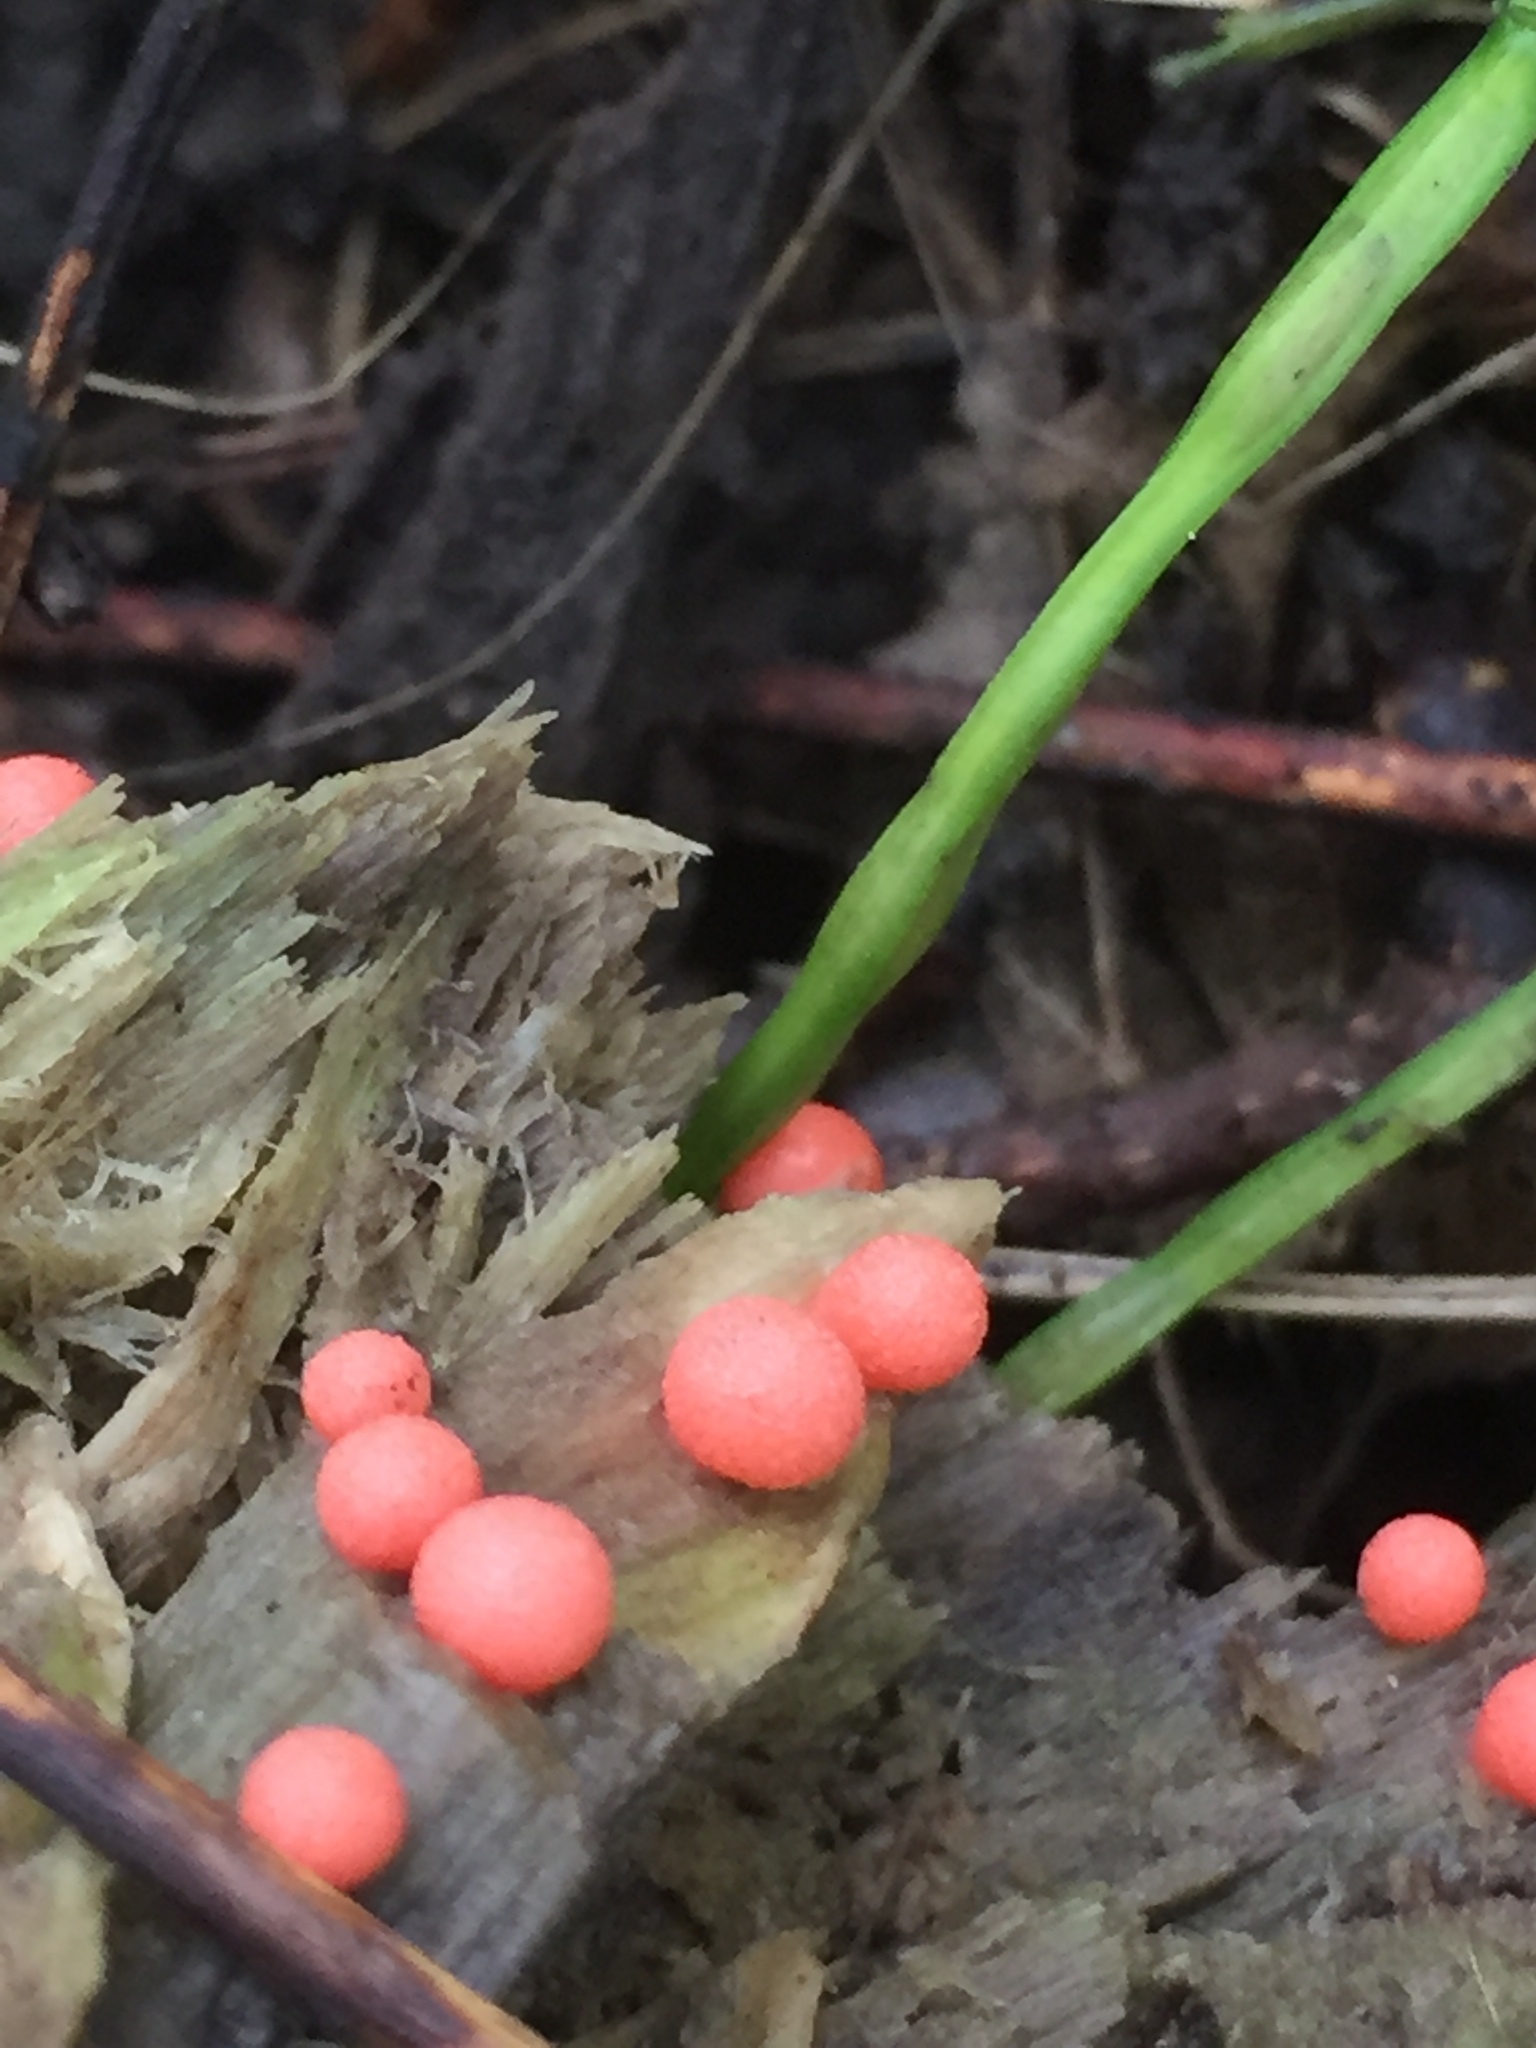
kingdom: Protozoa
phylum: Mycetozoa
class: Myxomycetes
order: Cribrariales
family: Tubiferaceae
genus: Lycogala
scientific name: Lycogala epidendrum
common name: Wolf's milk
